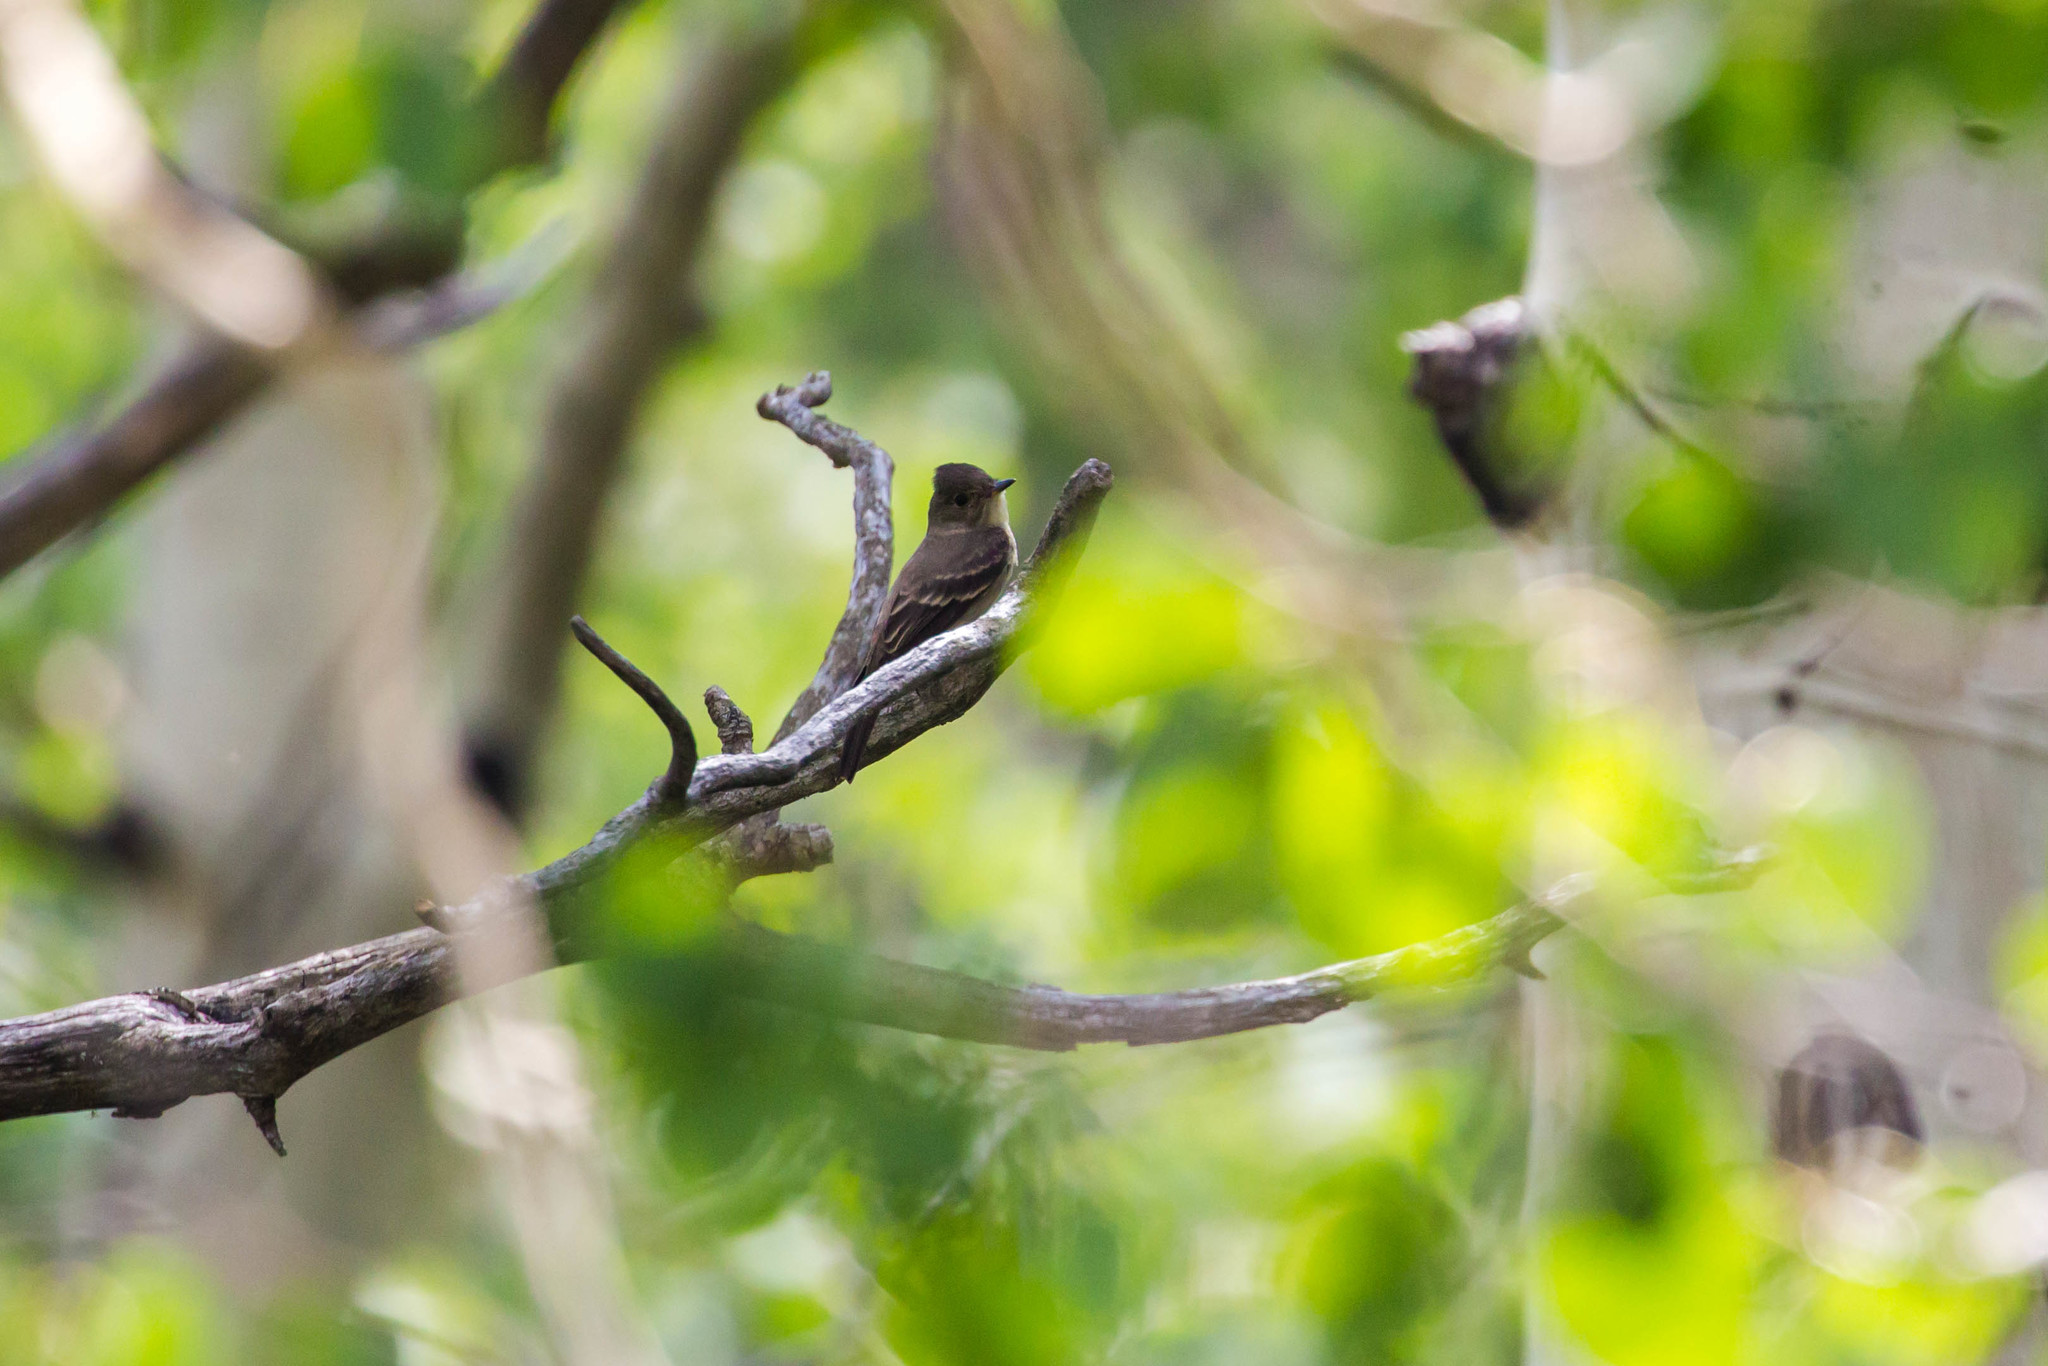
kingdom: Animalia
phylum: Chordata
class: Aves
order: Passeriformes
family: Tyrannidae
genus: Contopus
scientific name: Contopus sordidulus
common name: Western wood-pewee
